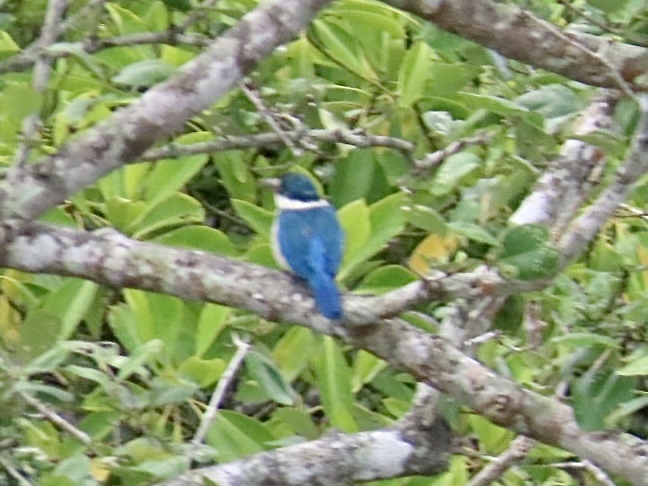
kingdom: Animalia
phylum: Chordata
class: Aves
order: Coraciiformes
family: Alcedinidae
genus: Todiramphus
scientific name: Todiramphus chloris
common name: Collared kingfisher
